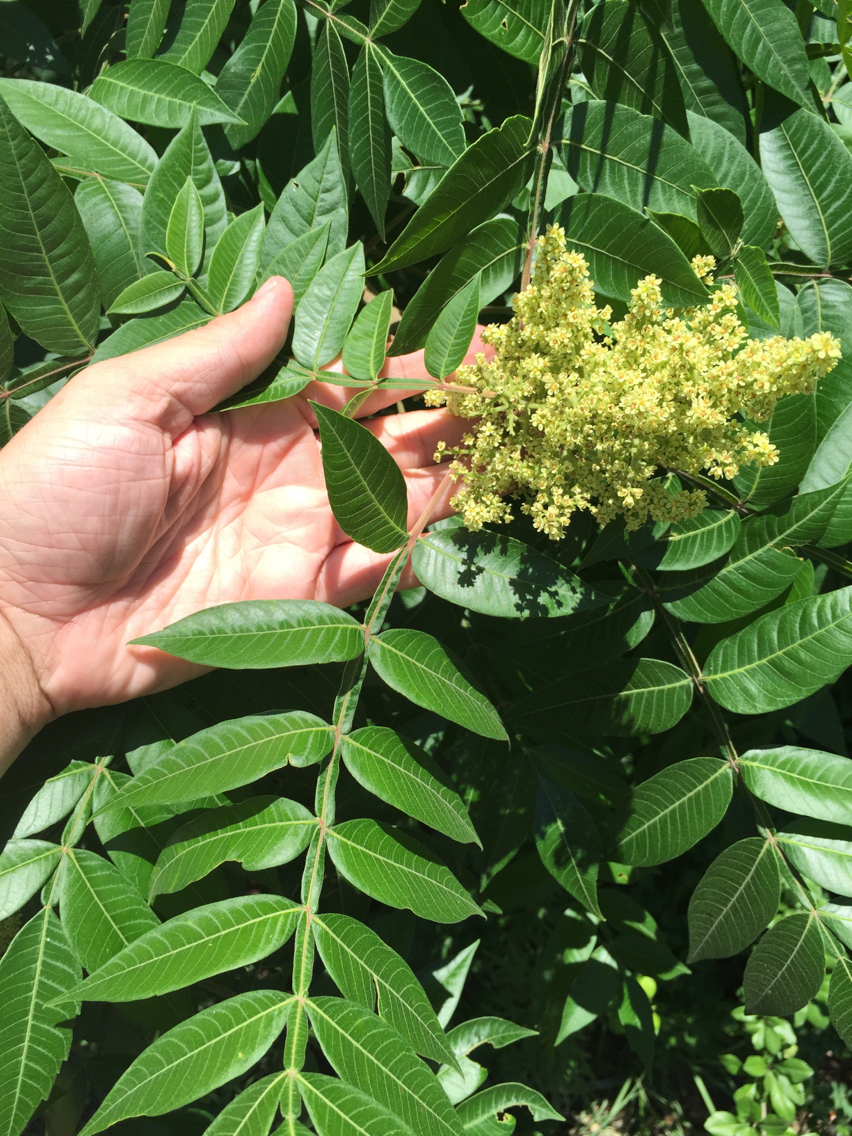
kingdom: Plantae
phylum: Tracheophyta
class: Magnoliopsida
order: Sapindales
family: Anacardiaceae
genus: Rhus
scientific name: Rhus copallina
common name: Shining sumac
